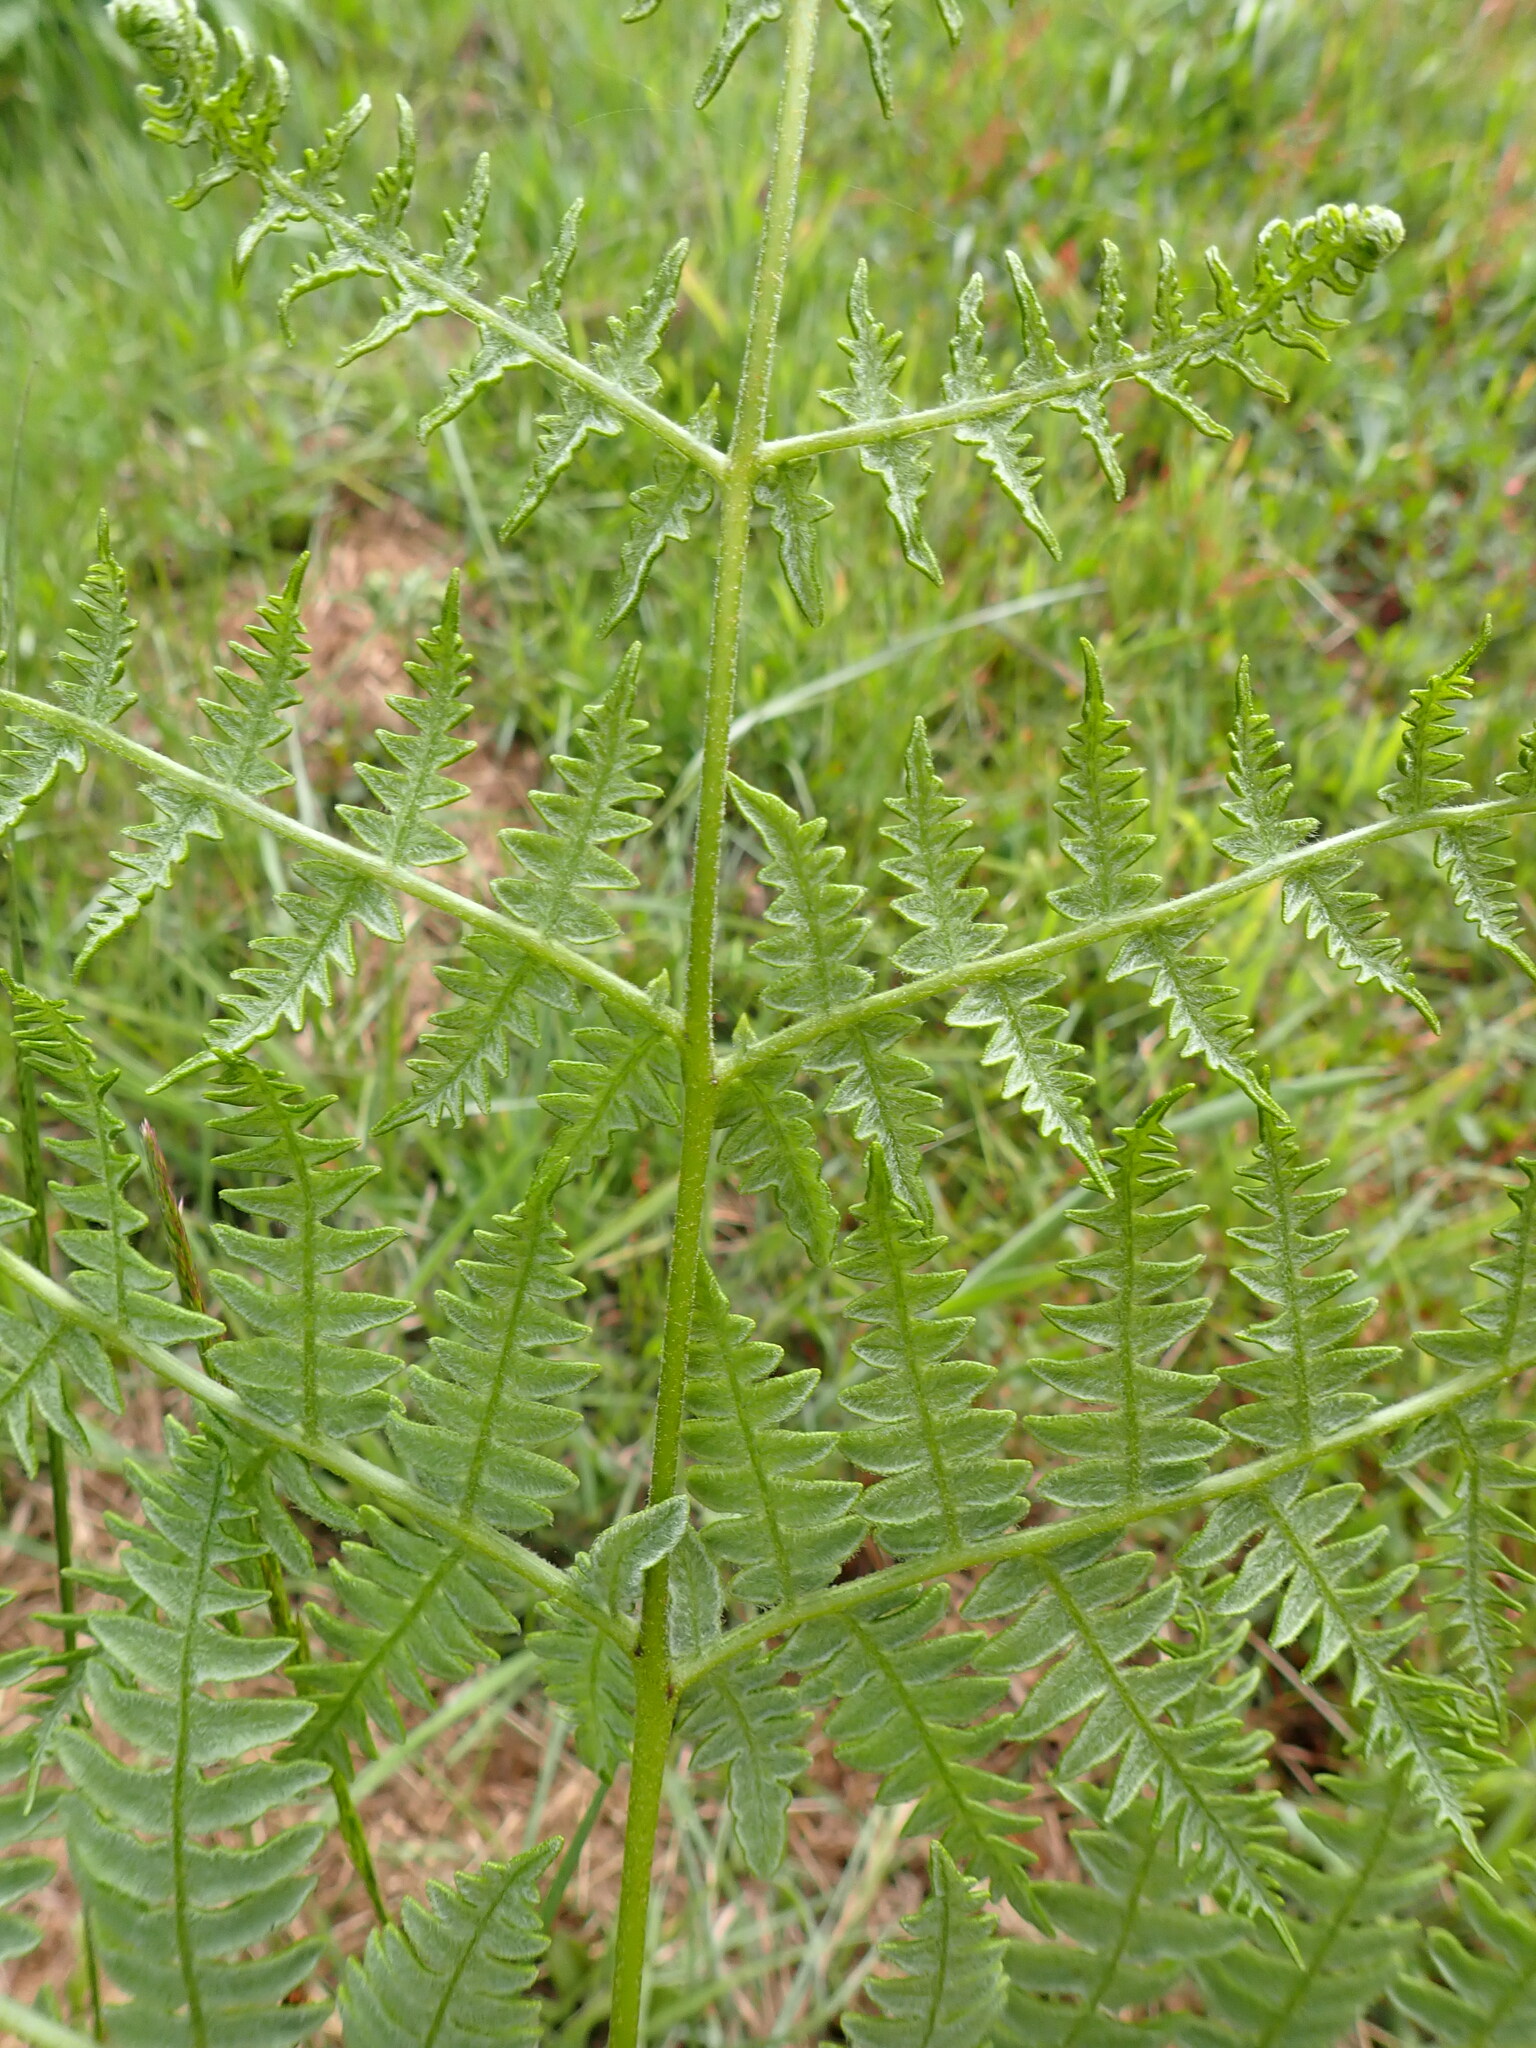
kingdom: Plantae
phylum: Tracheophyta
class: Polypodiopsida
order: Polypodiales
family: Dennstaedtiaceae
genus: Pteridium
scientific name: Pteridium aquilinum
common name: Bracken
